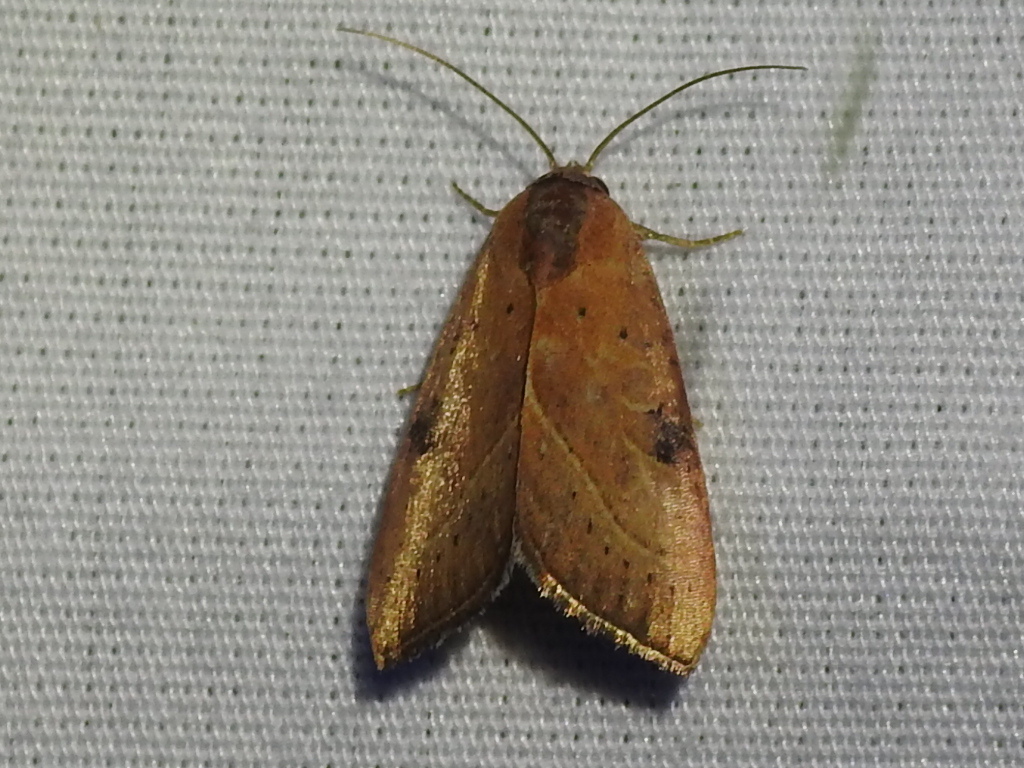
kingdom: Animalia
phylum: Arthropoda
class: Insecta
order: Lepidoptera
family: Noctuidae
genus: Galgula
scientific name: Galgula partita
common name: Wedgeling
